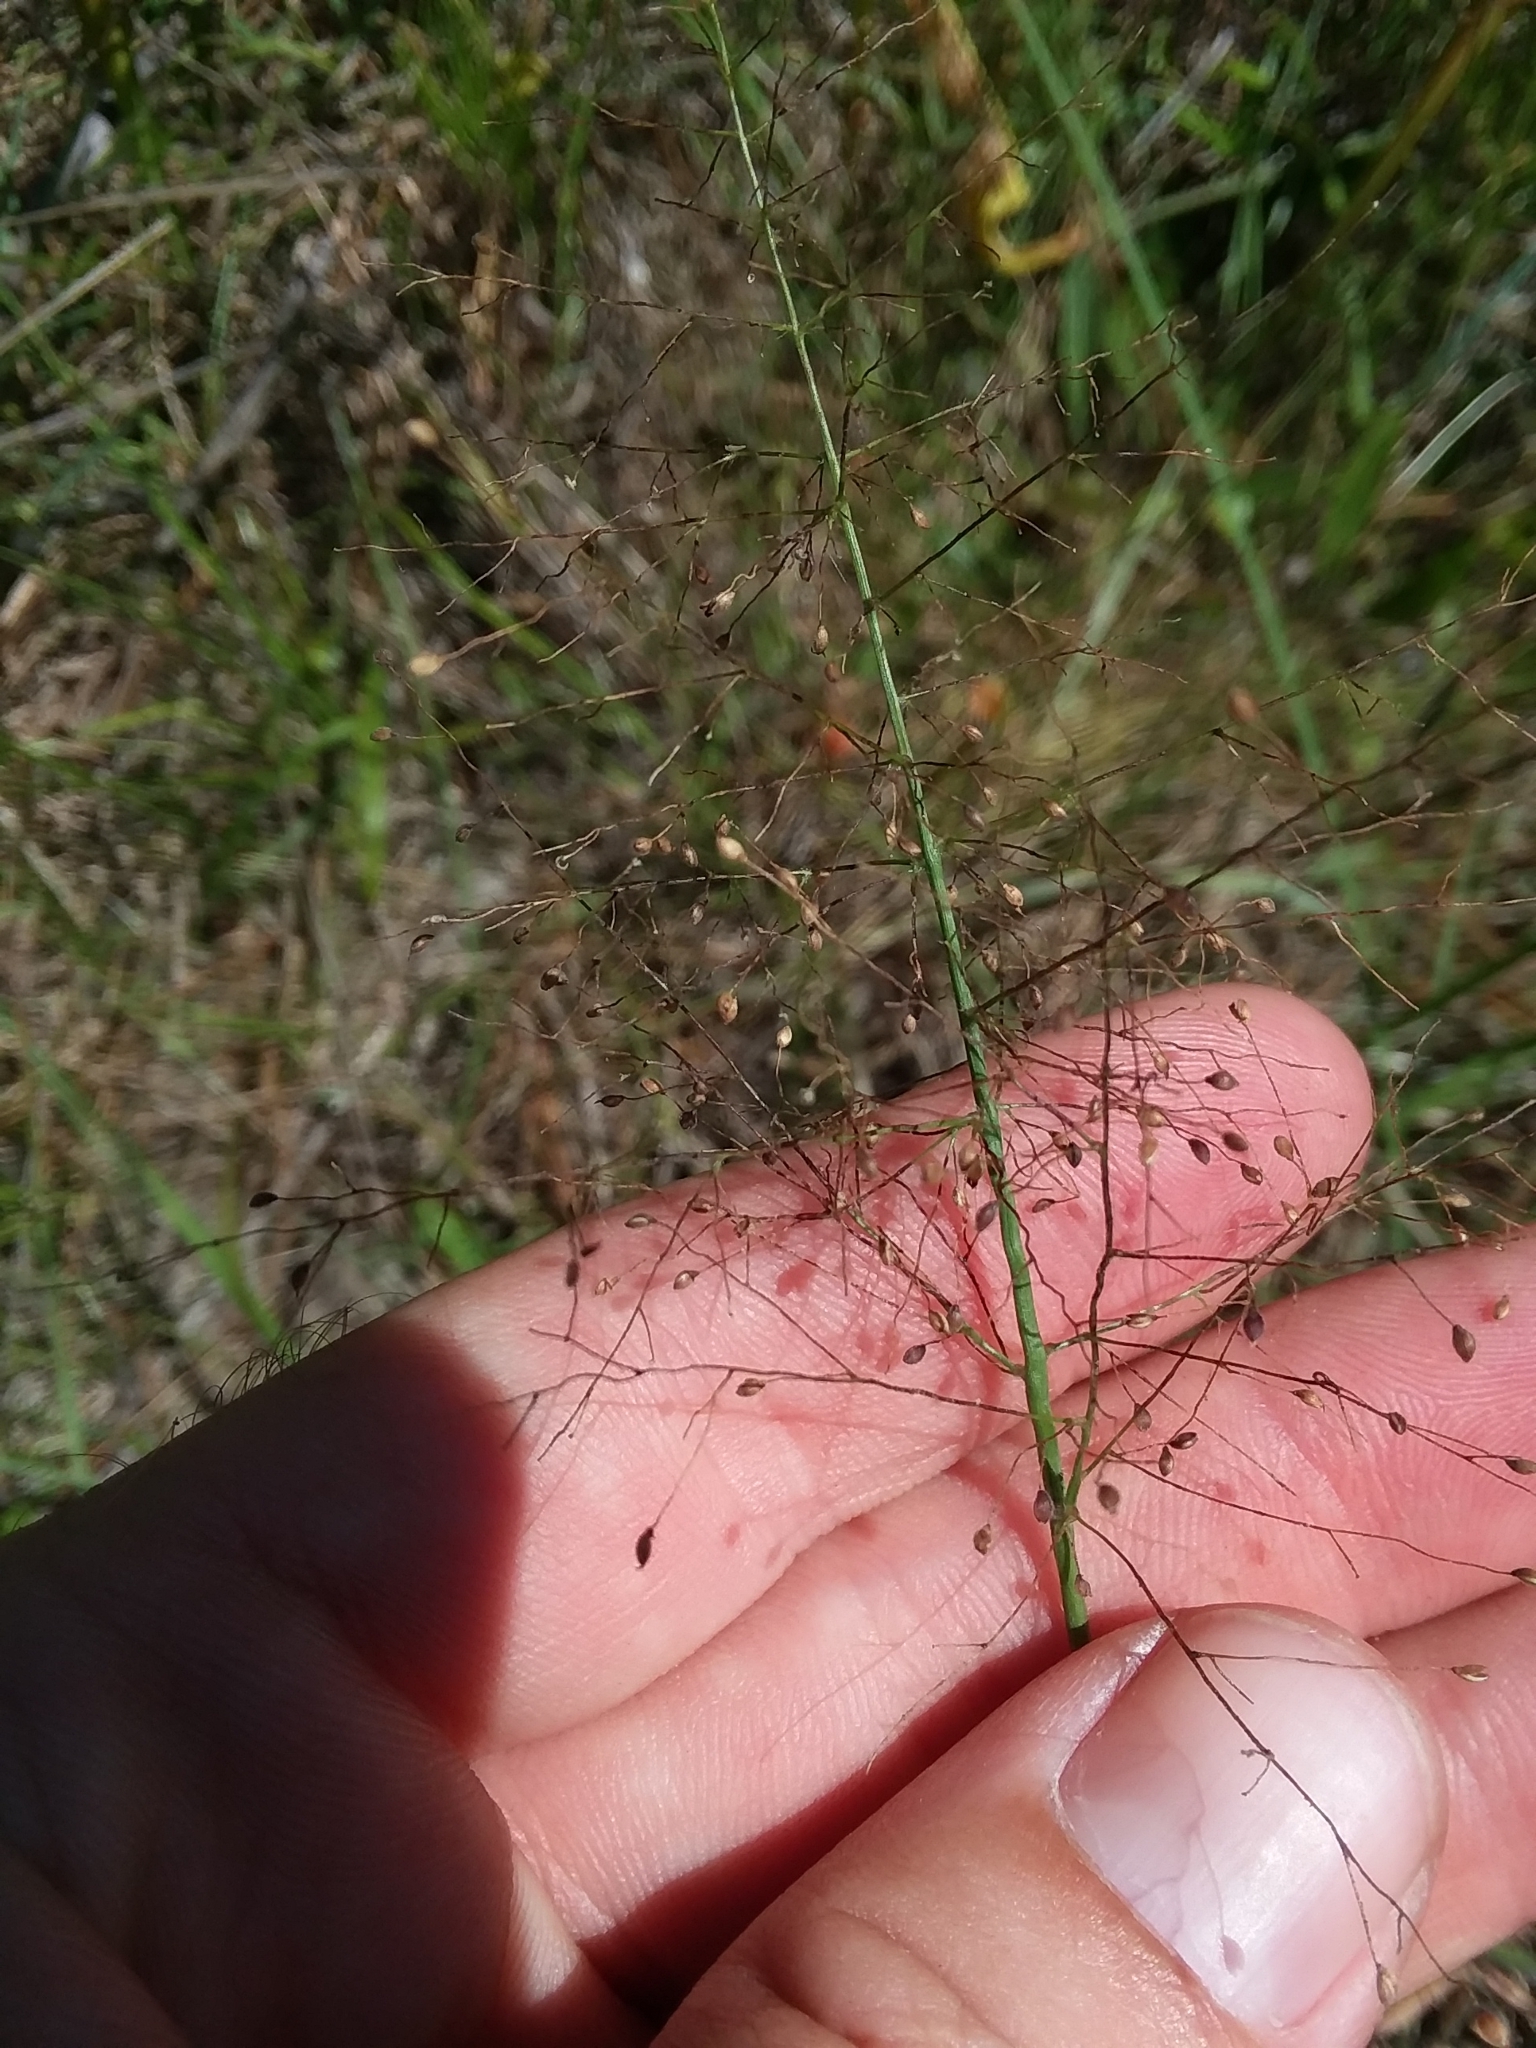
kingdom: Plantae
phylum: Tracheophyta
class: Liliopsida
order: Poales
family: Poaceae
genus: Dichanthelium
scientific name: Dichanthelium leucothrix
